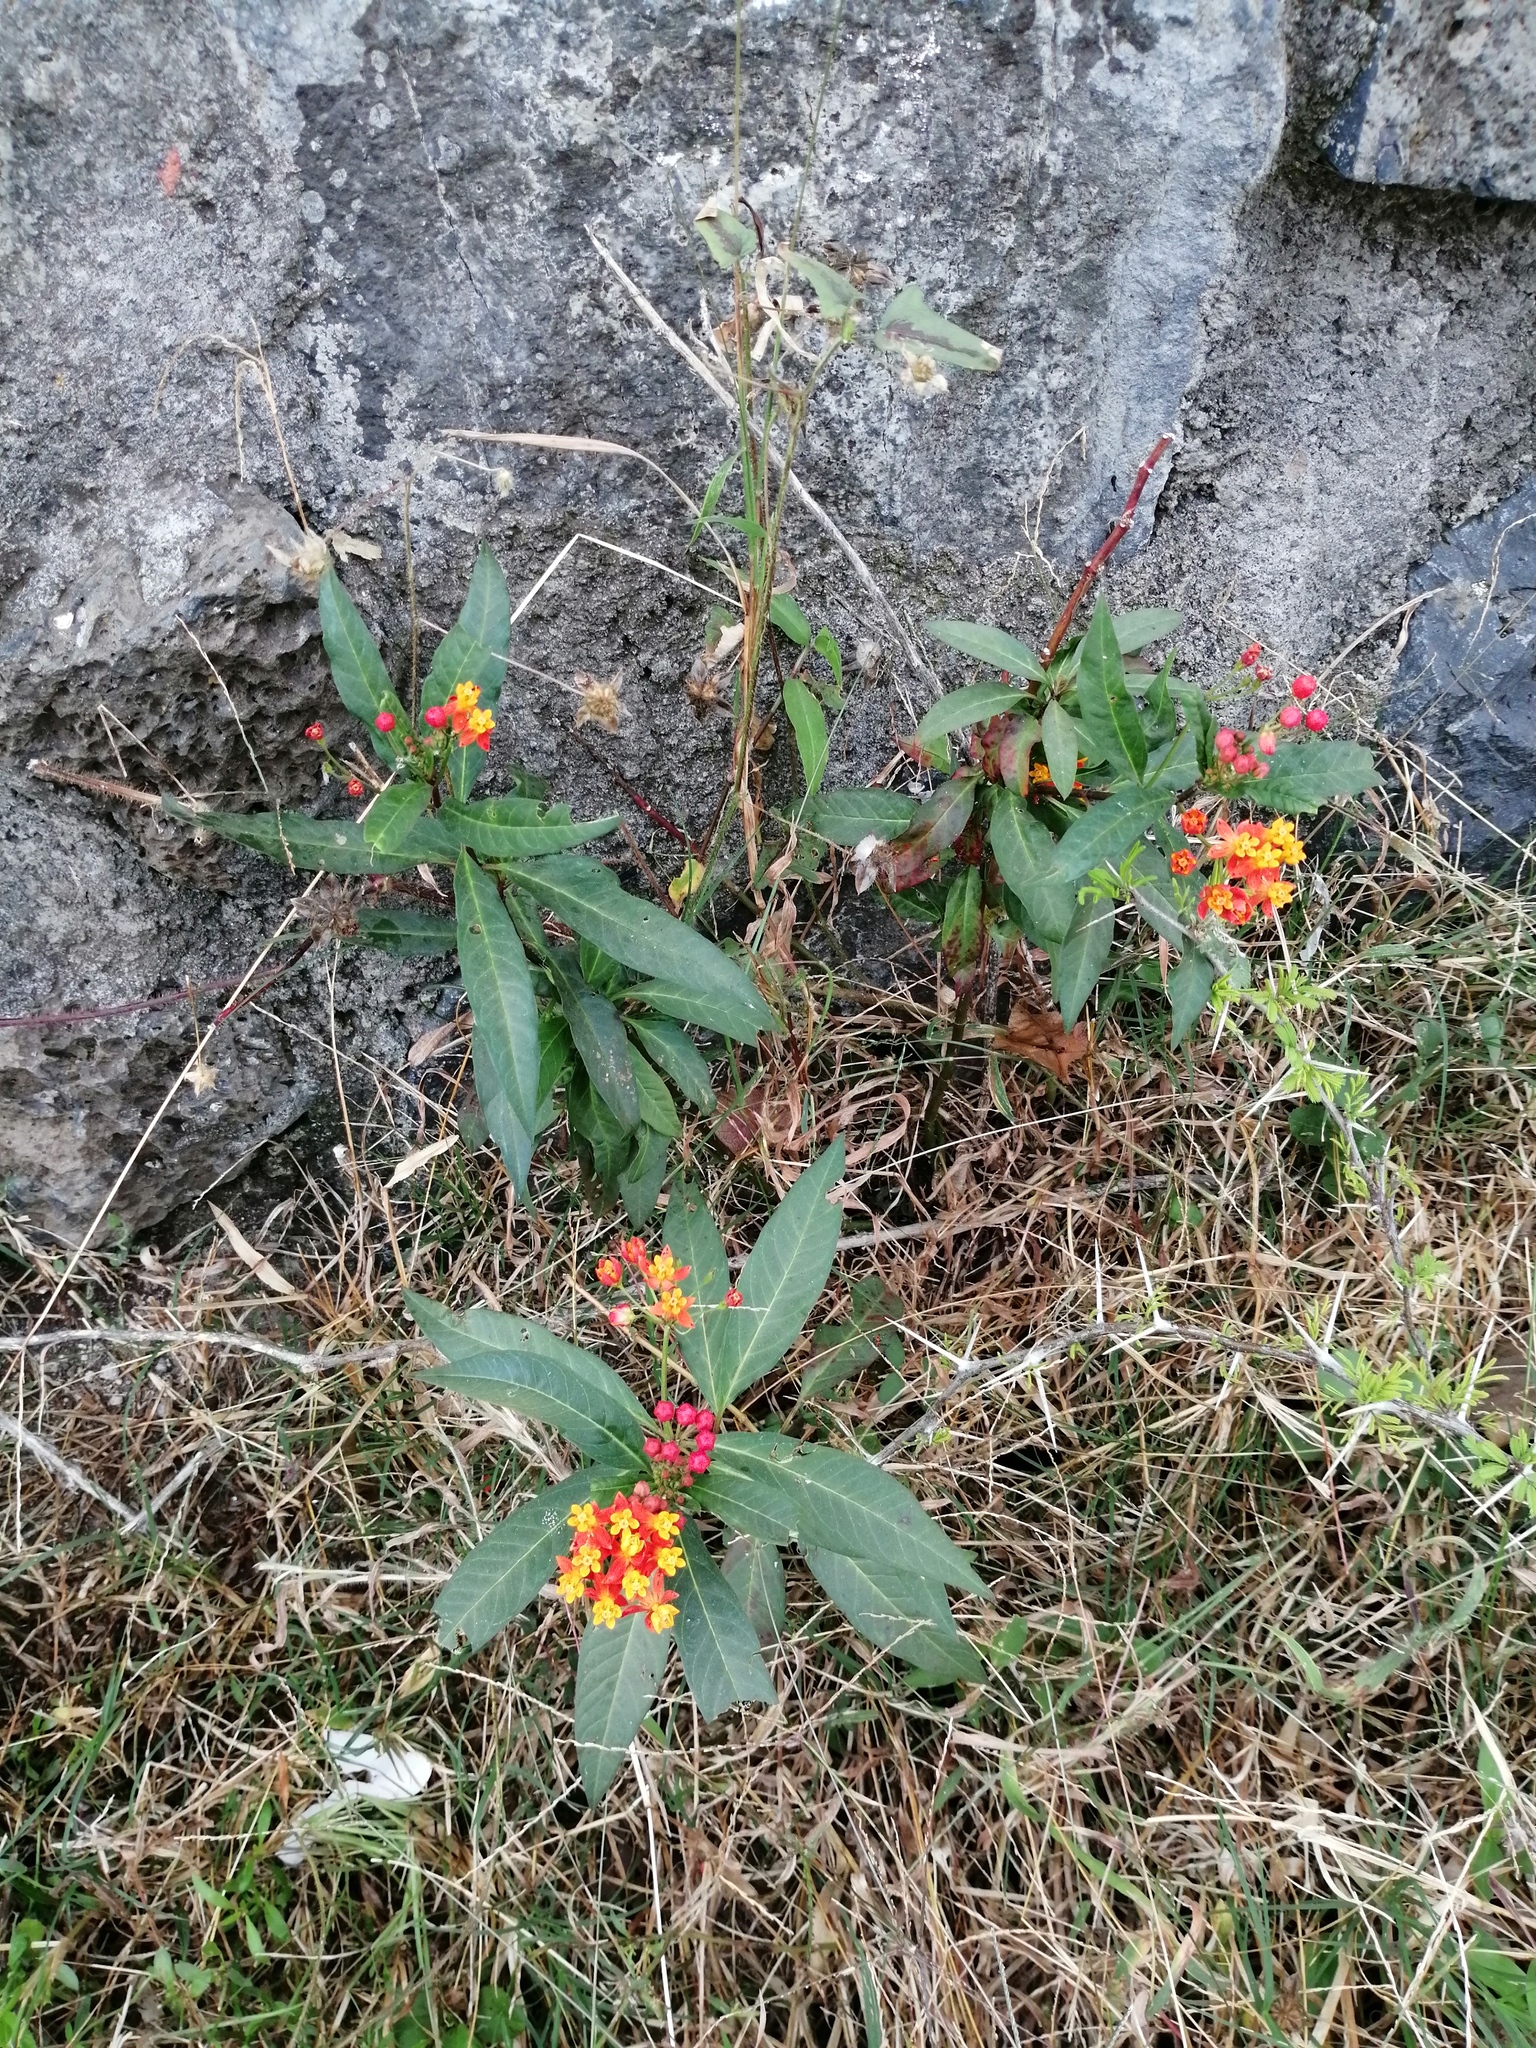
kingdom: Plantae
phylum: Tracheophyta
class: Magnoliopsida
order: Gentianales
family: Apocynaceae
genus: Asclepias
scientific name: Asclepias curassavica
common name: Bloodflower
